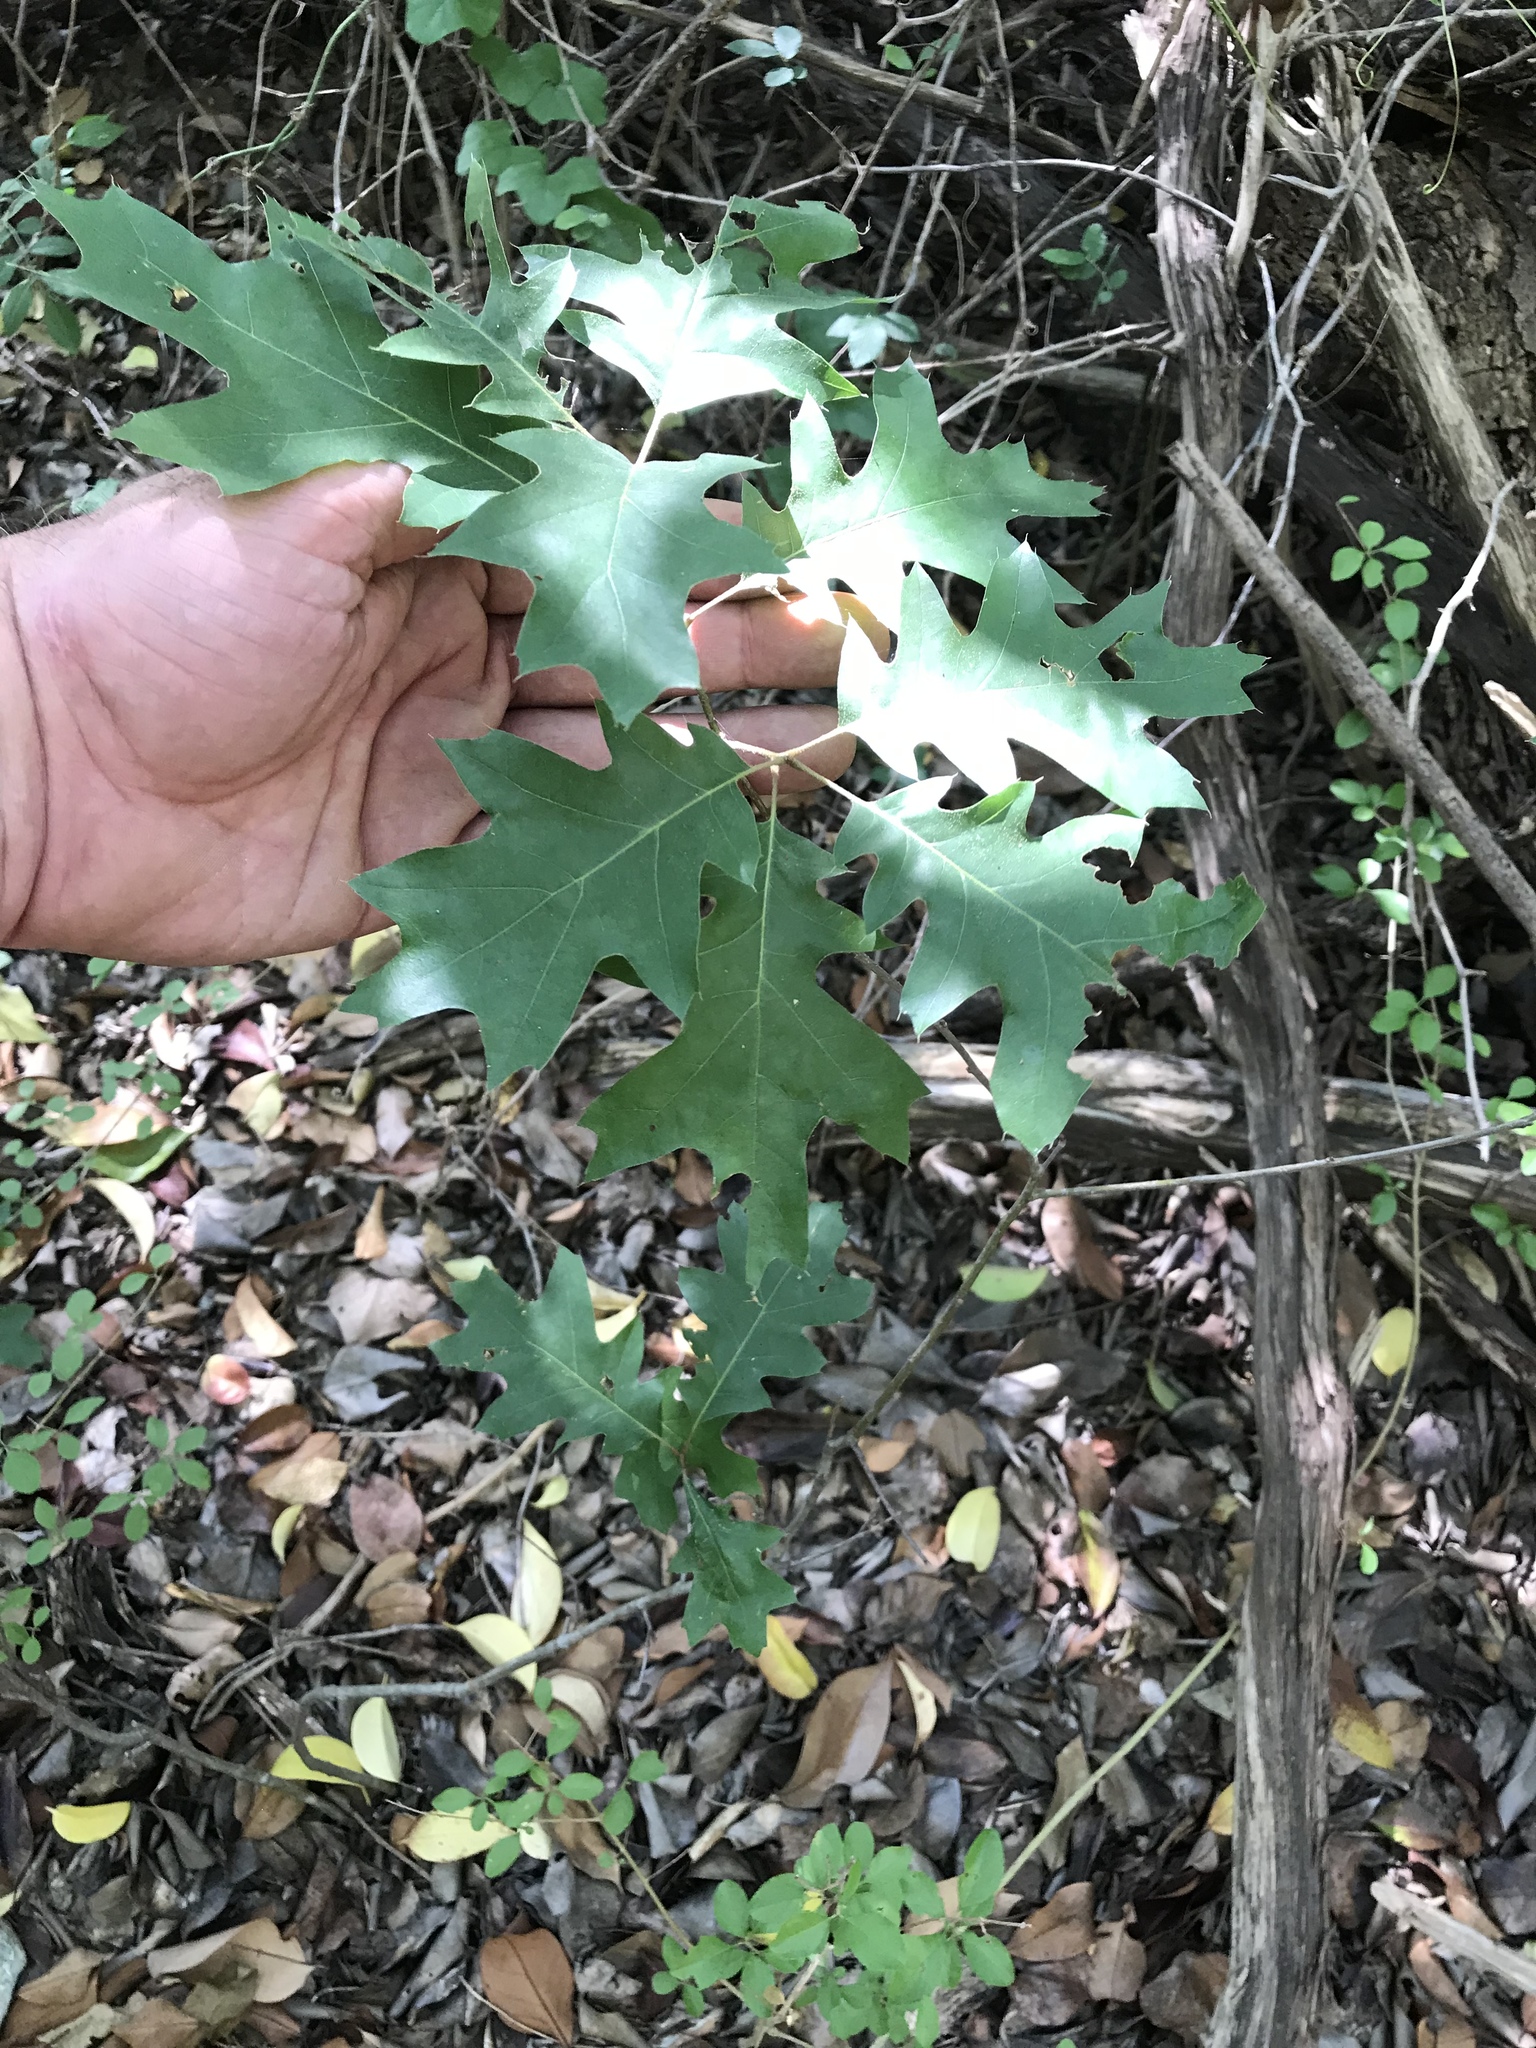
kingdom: Plantae
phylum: Tracheophyta
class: Magnoliopsida
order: Fagales
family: Fagaceae
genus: Quercus
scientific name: Quercus buckleyi
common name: Buckley oak
